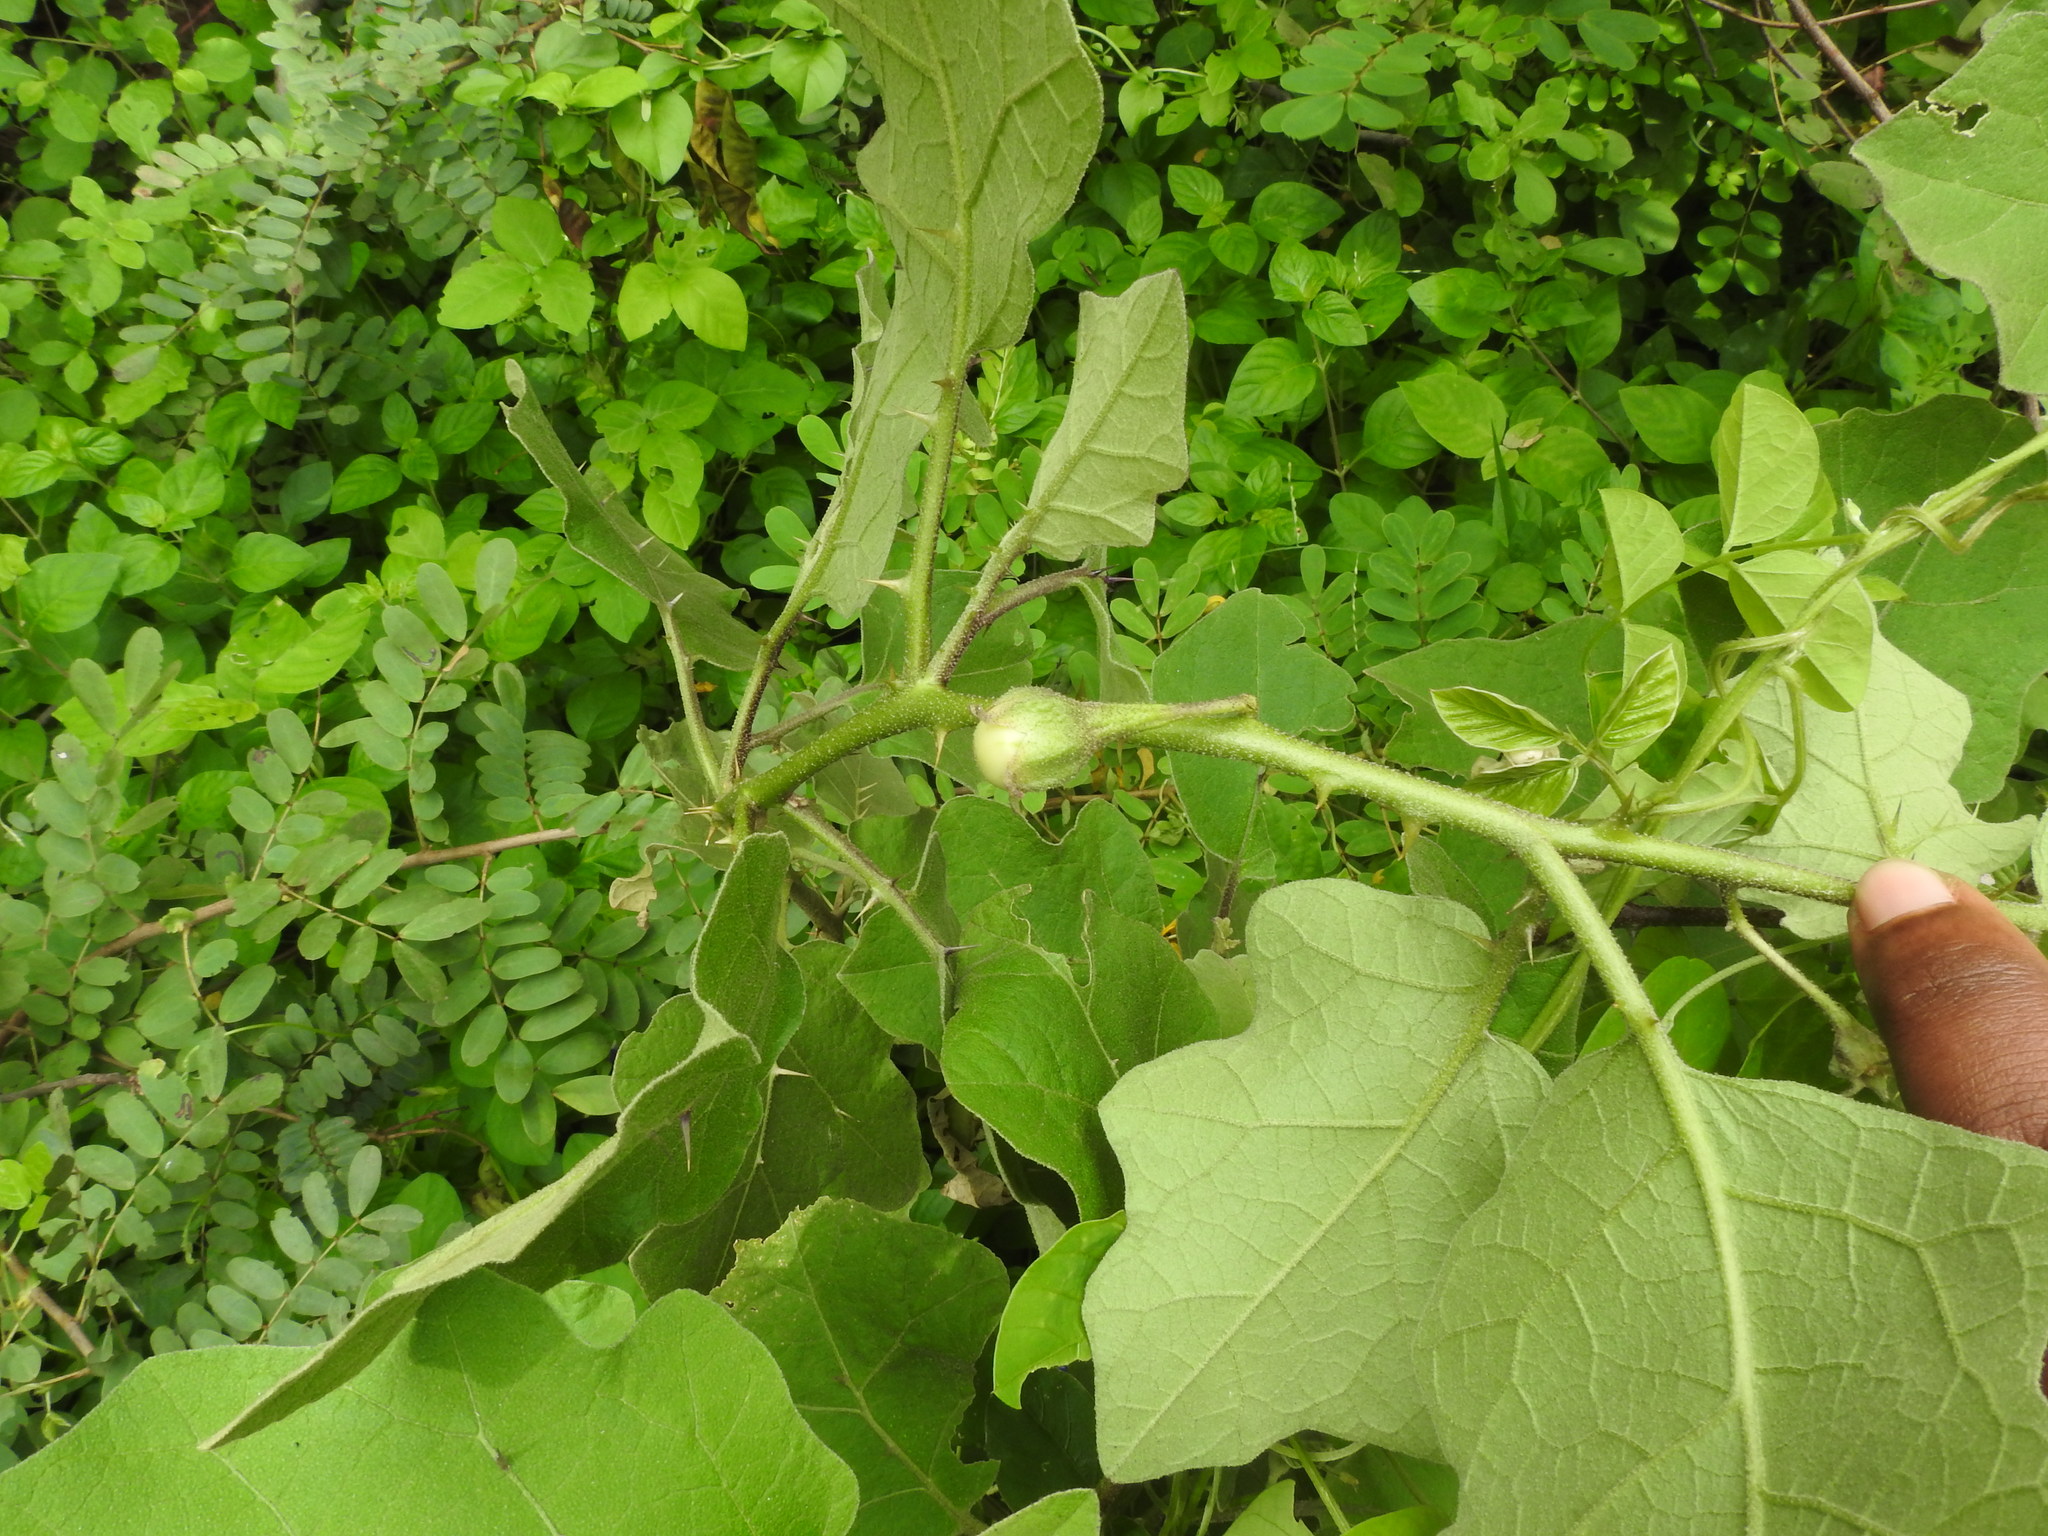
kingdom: Plantae
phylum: Tracheophyta
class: Magnoliopsida
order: Solanales
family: Solanaceae
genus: Solanum
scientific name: Solanum insanum
